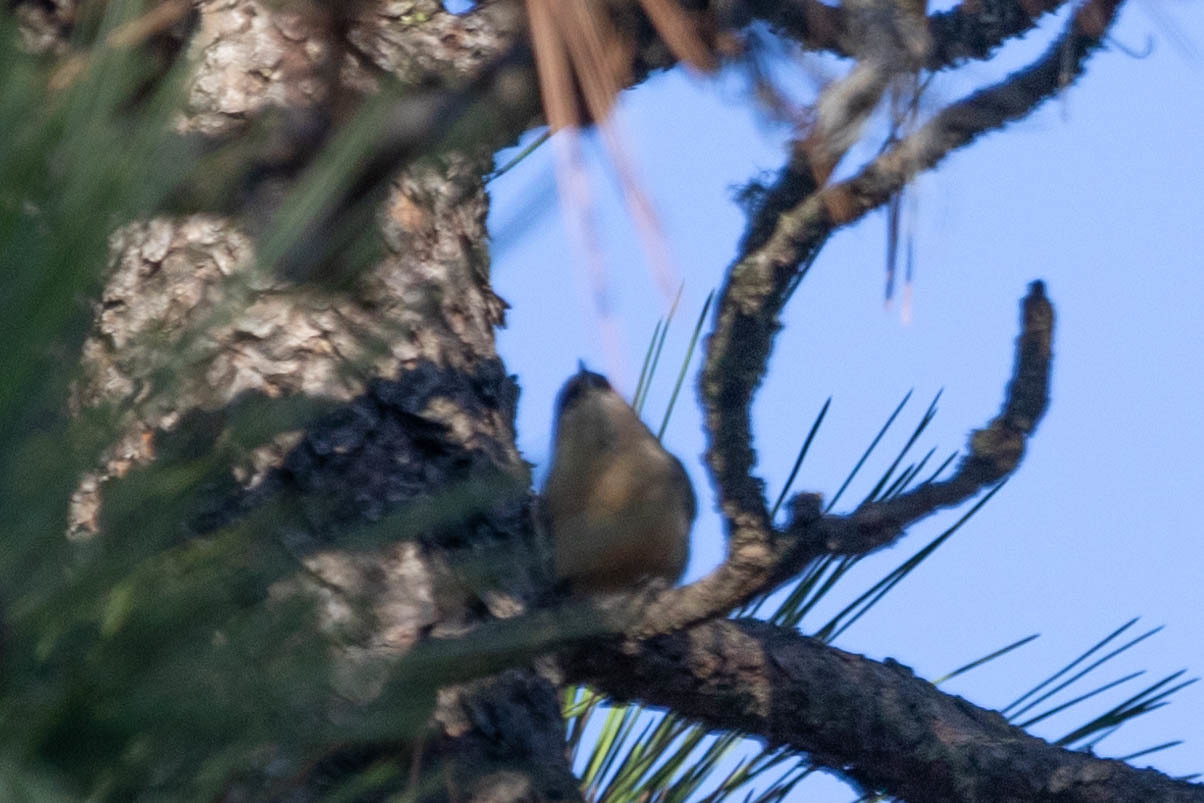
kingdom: Animalia
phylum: Chordata
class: Aves
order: Passeriformes
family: Sittidae
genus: Sitta
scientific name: Sitta pygmaea
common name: Pygmy nuthatch
